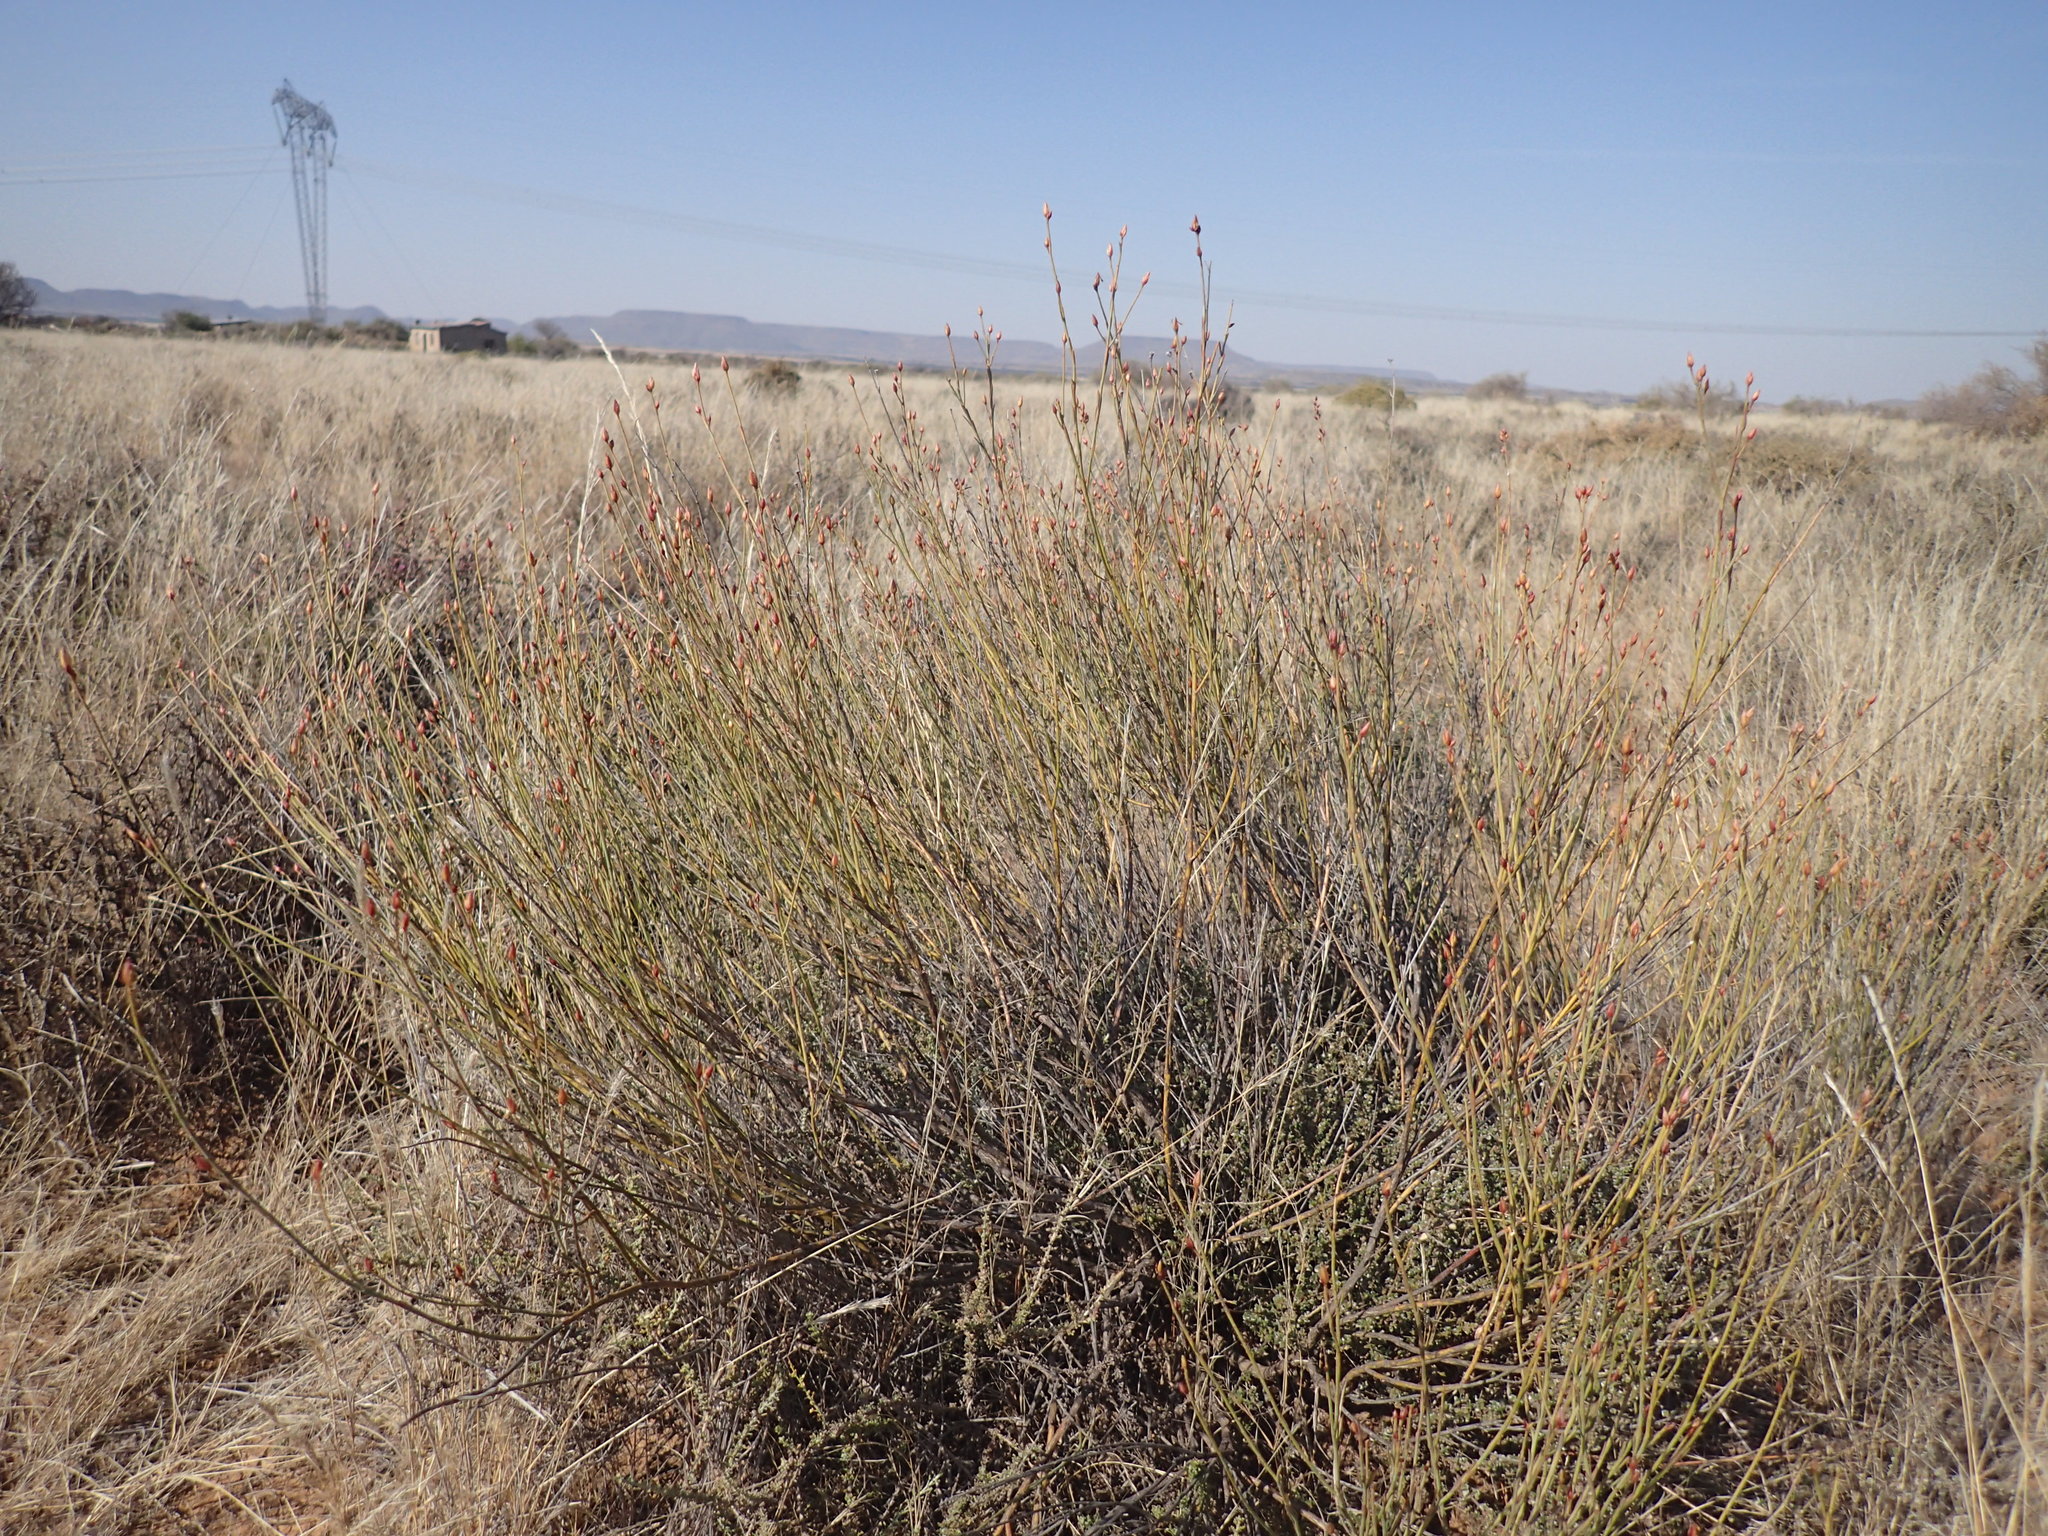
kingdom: Plantae
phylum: Tracheophyta
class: Magnoliopsida
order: Zygophyllales
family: Zygophyllaceae
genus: Sisyndite
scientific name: Sisyndite spartea
